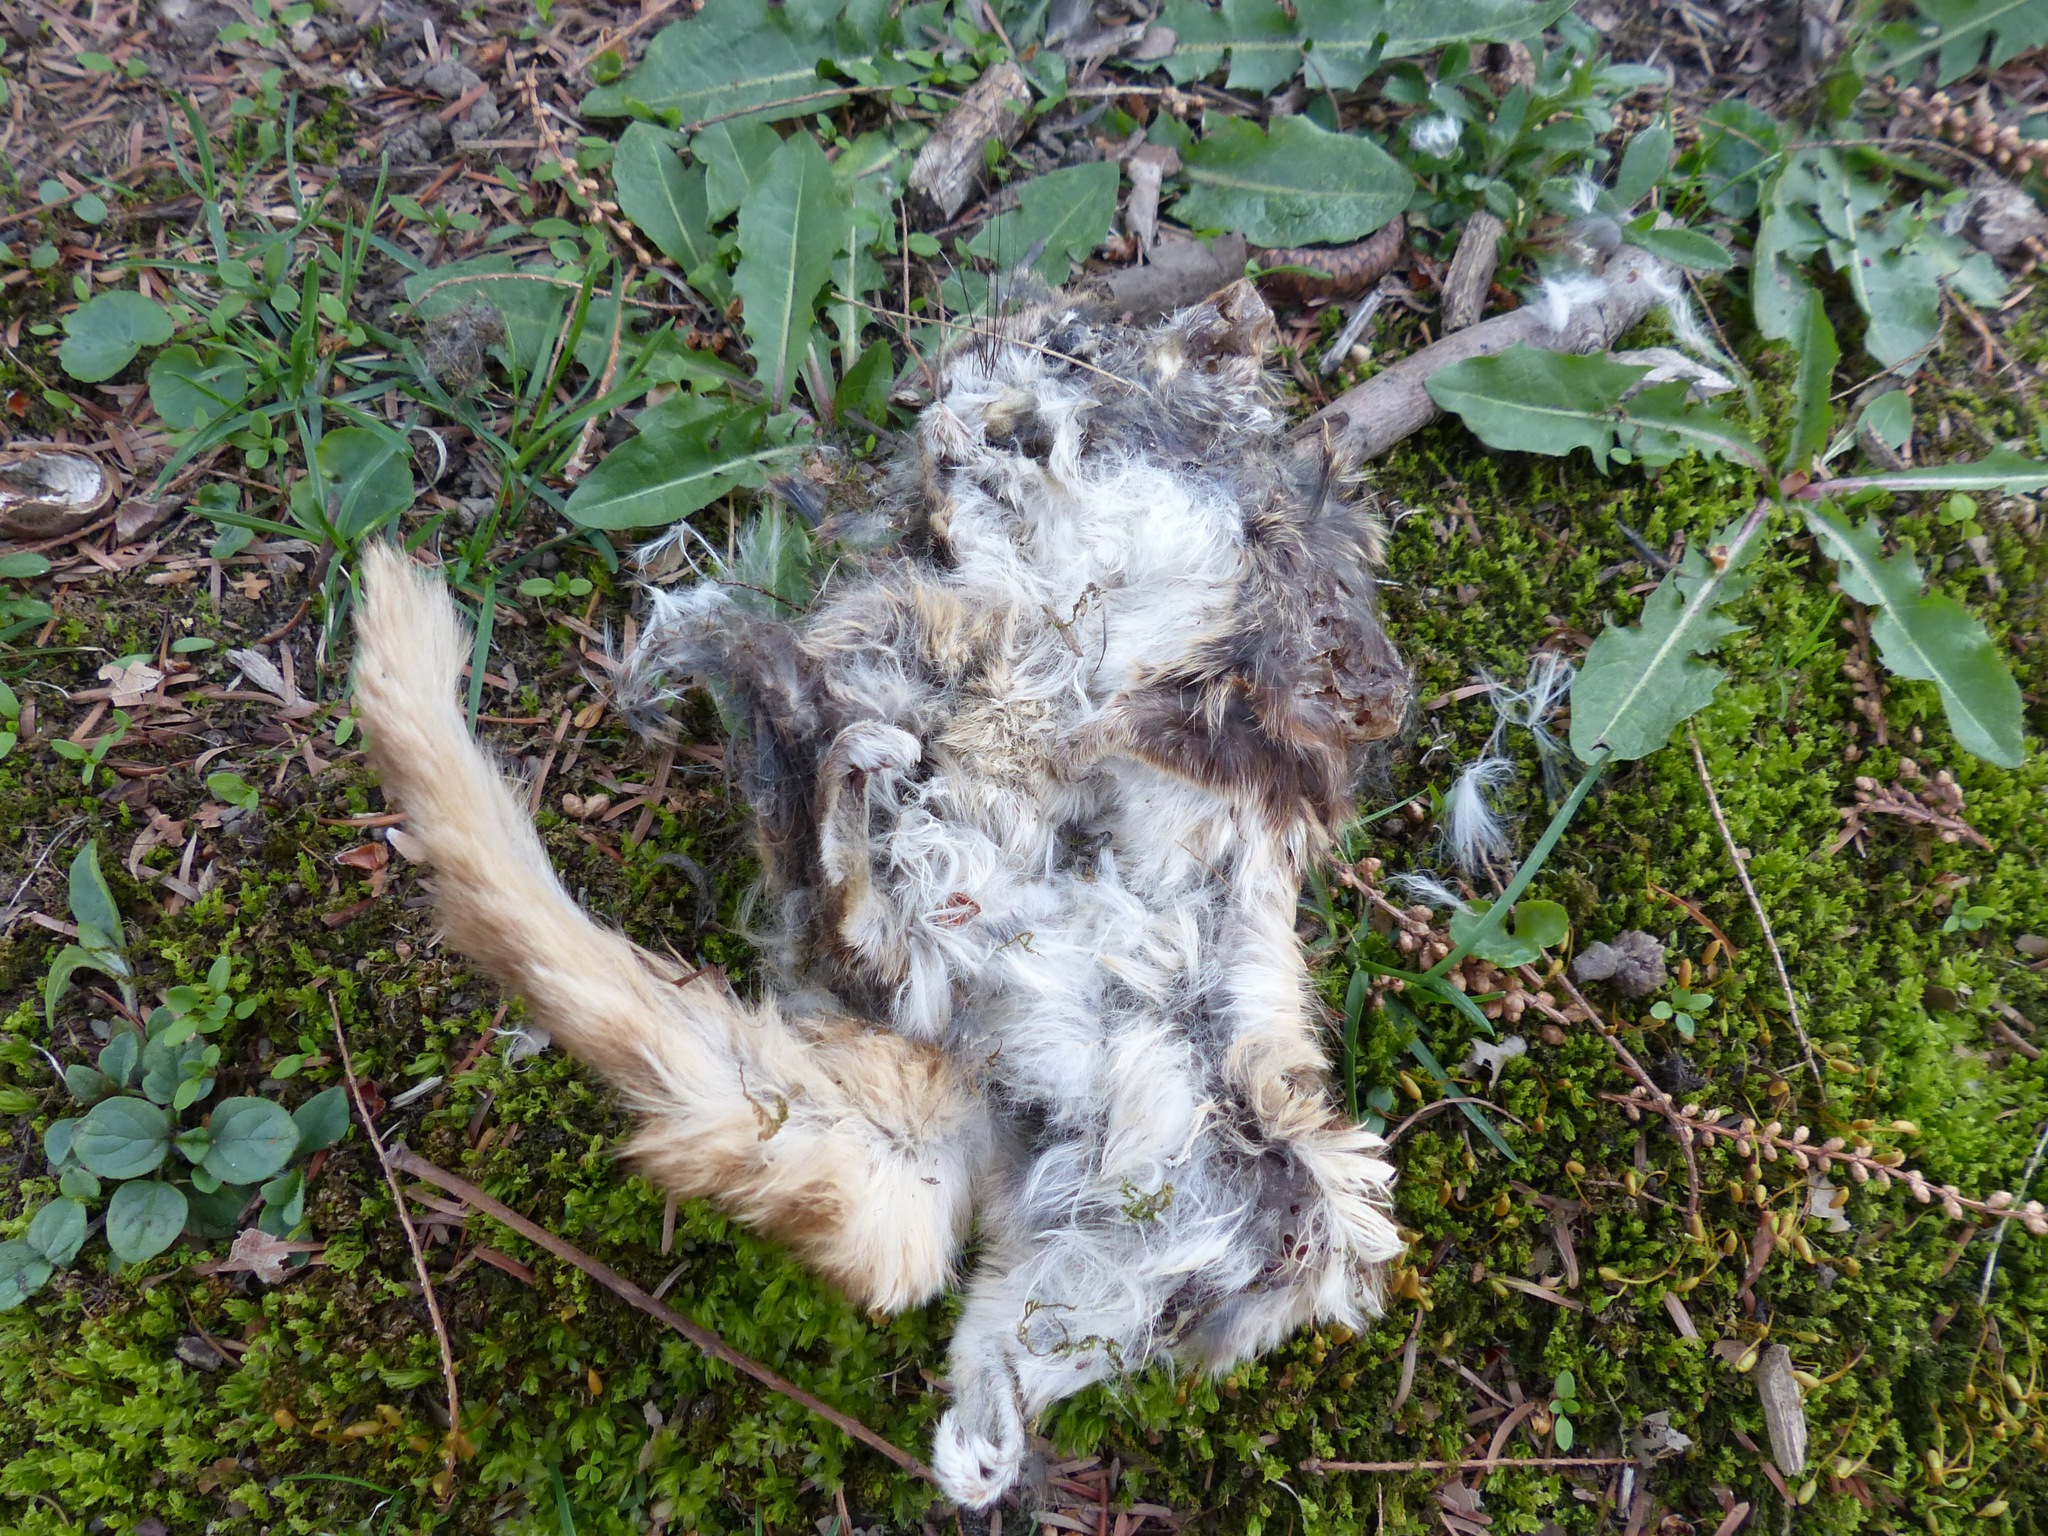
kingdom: Animalia
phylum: Chordata
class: Mammalia
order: Rodentia
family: Sciuridae
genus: Glaucomys
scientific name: Glaucomys volans
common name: Southern flying squirrel
